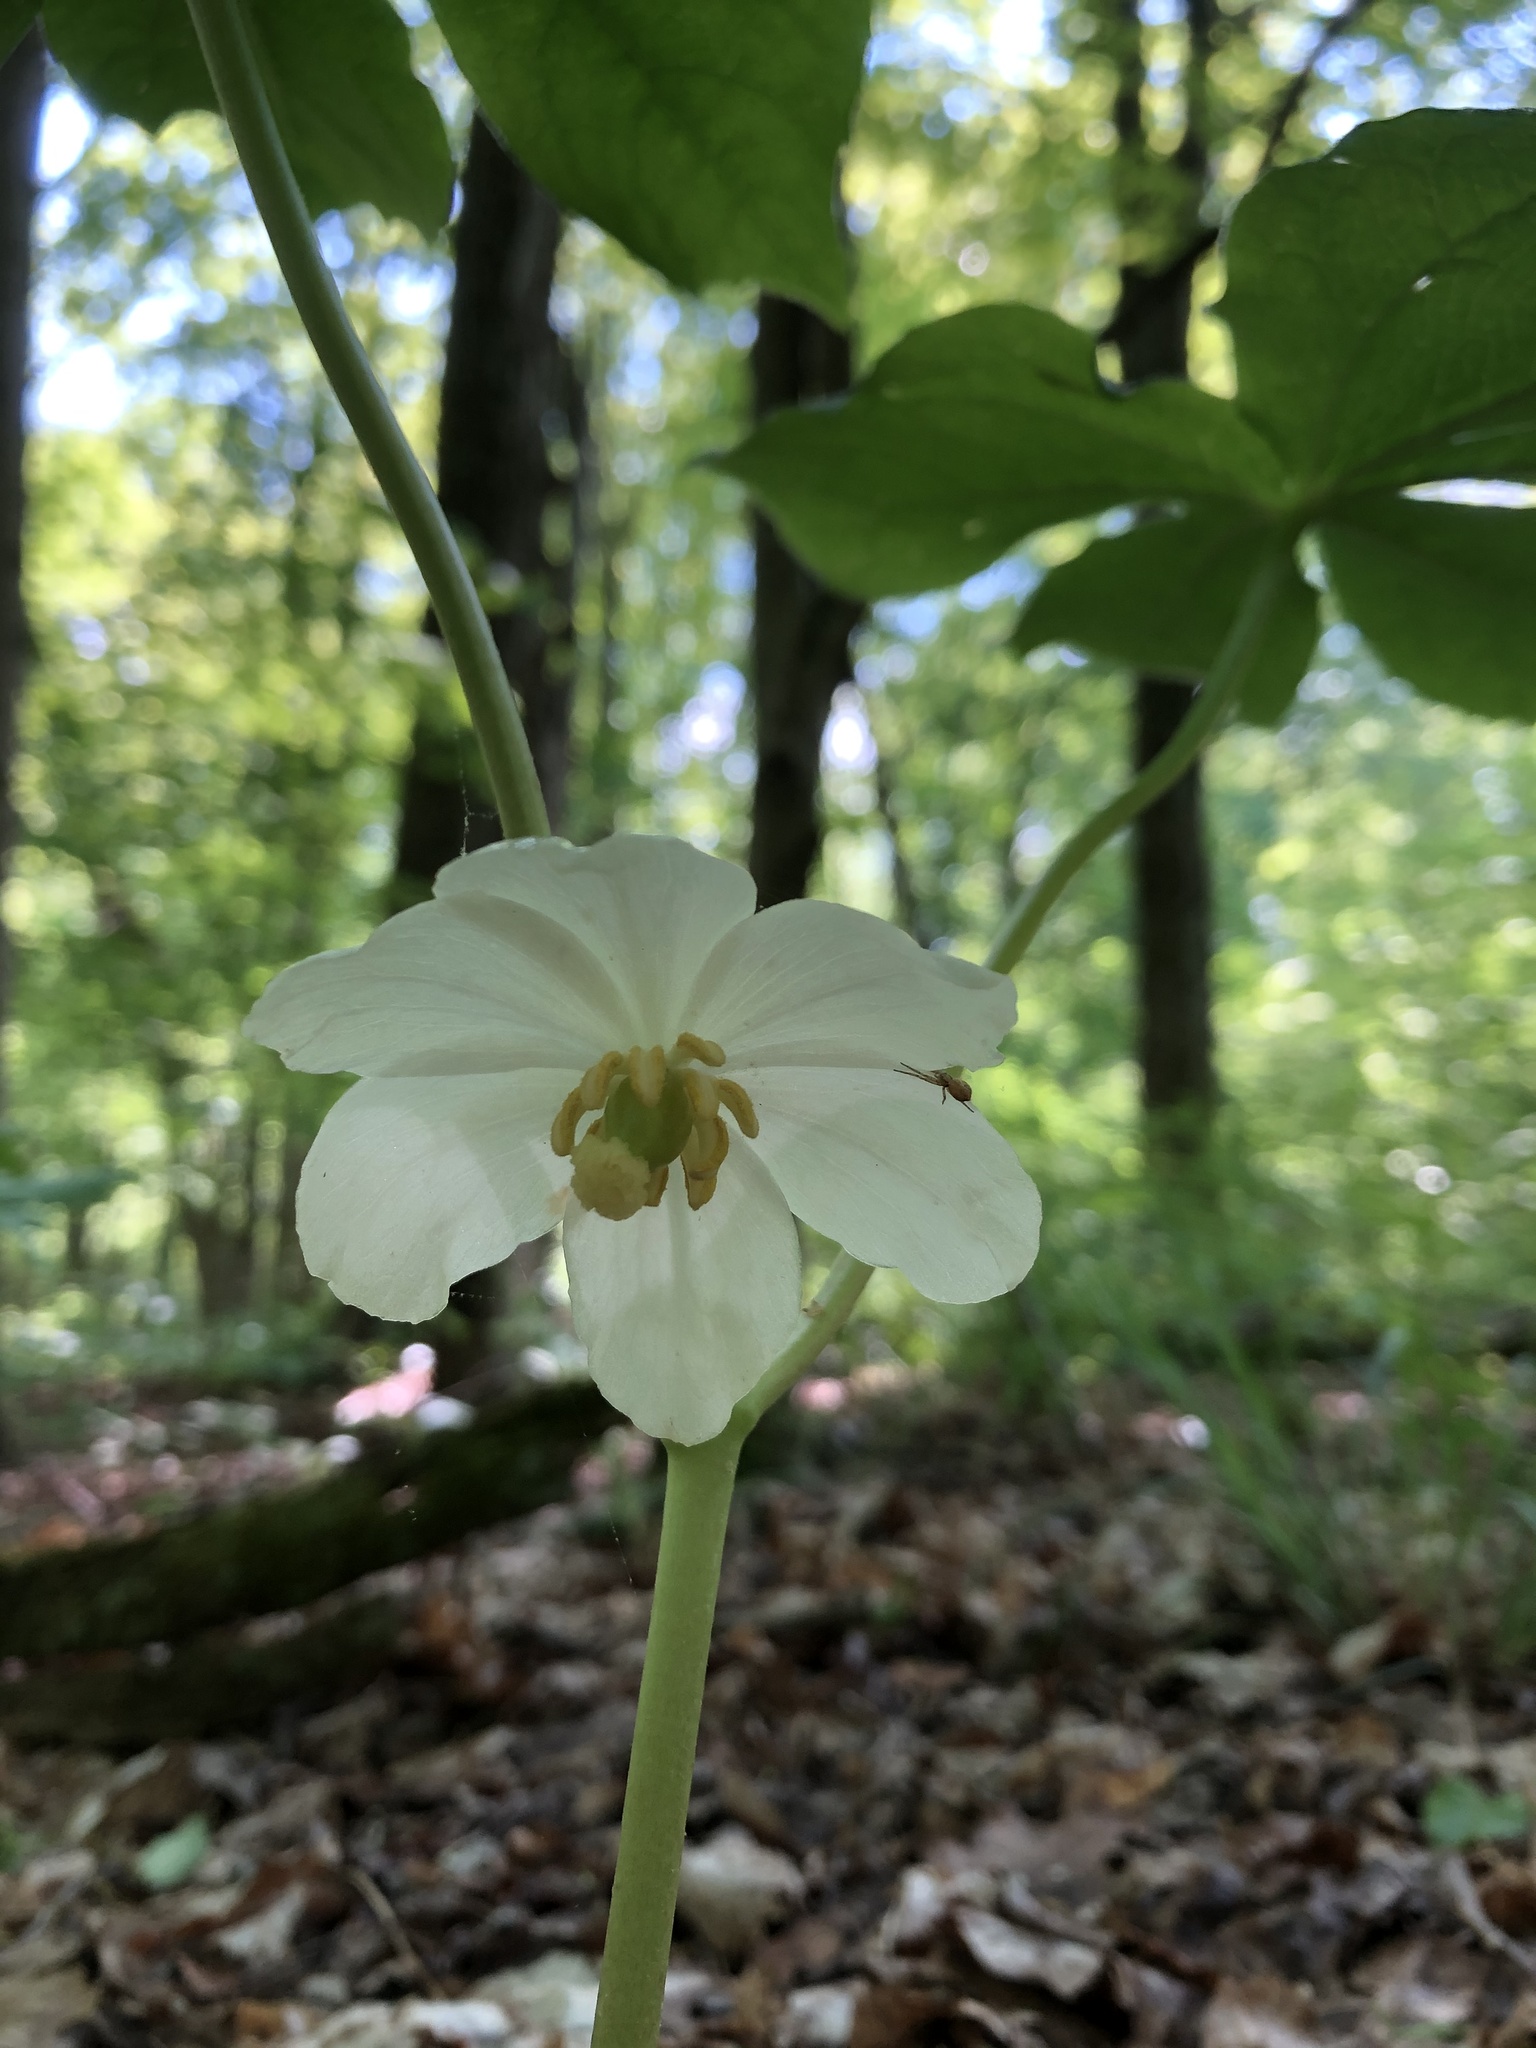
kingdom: Plantae
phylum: Tracheophyta
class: Magnoliopsida
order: Ranunculales
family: Berberidaceae
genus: Podophyllum
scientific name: Podophyllum peltatum
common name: Wild mandrake
